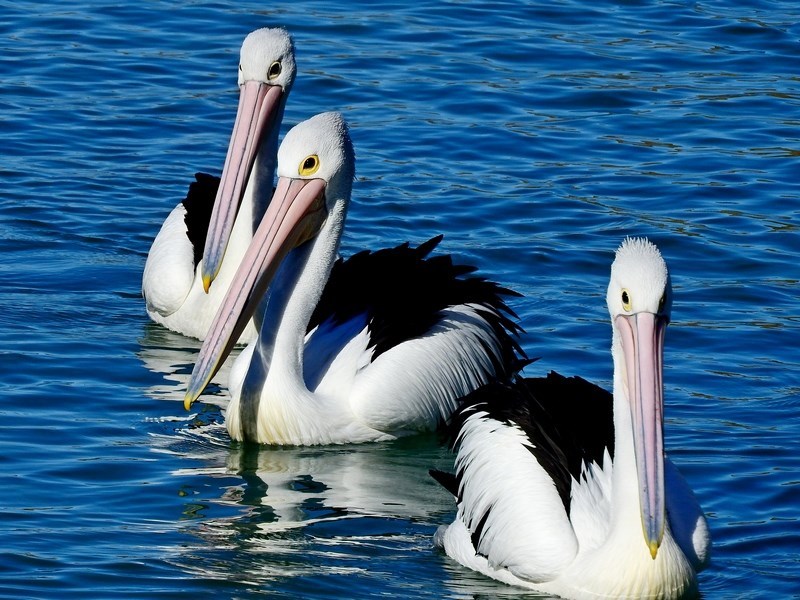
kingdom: Animalia
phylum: Chordata
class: Aves
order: Pelecaniformes
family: Pelecanidae
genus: Pelecanus
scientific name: Pelecanus conspicillatus
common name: Australian pelican
